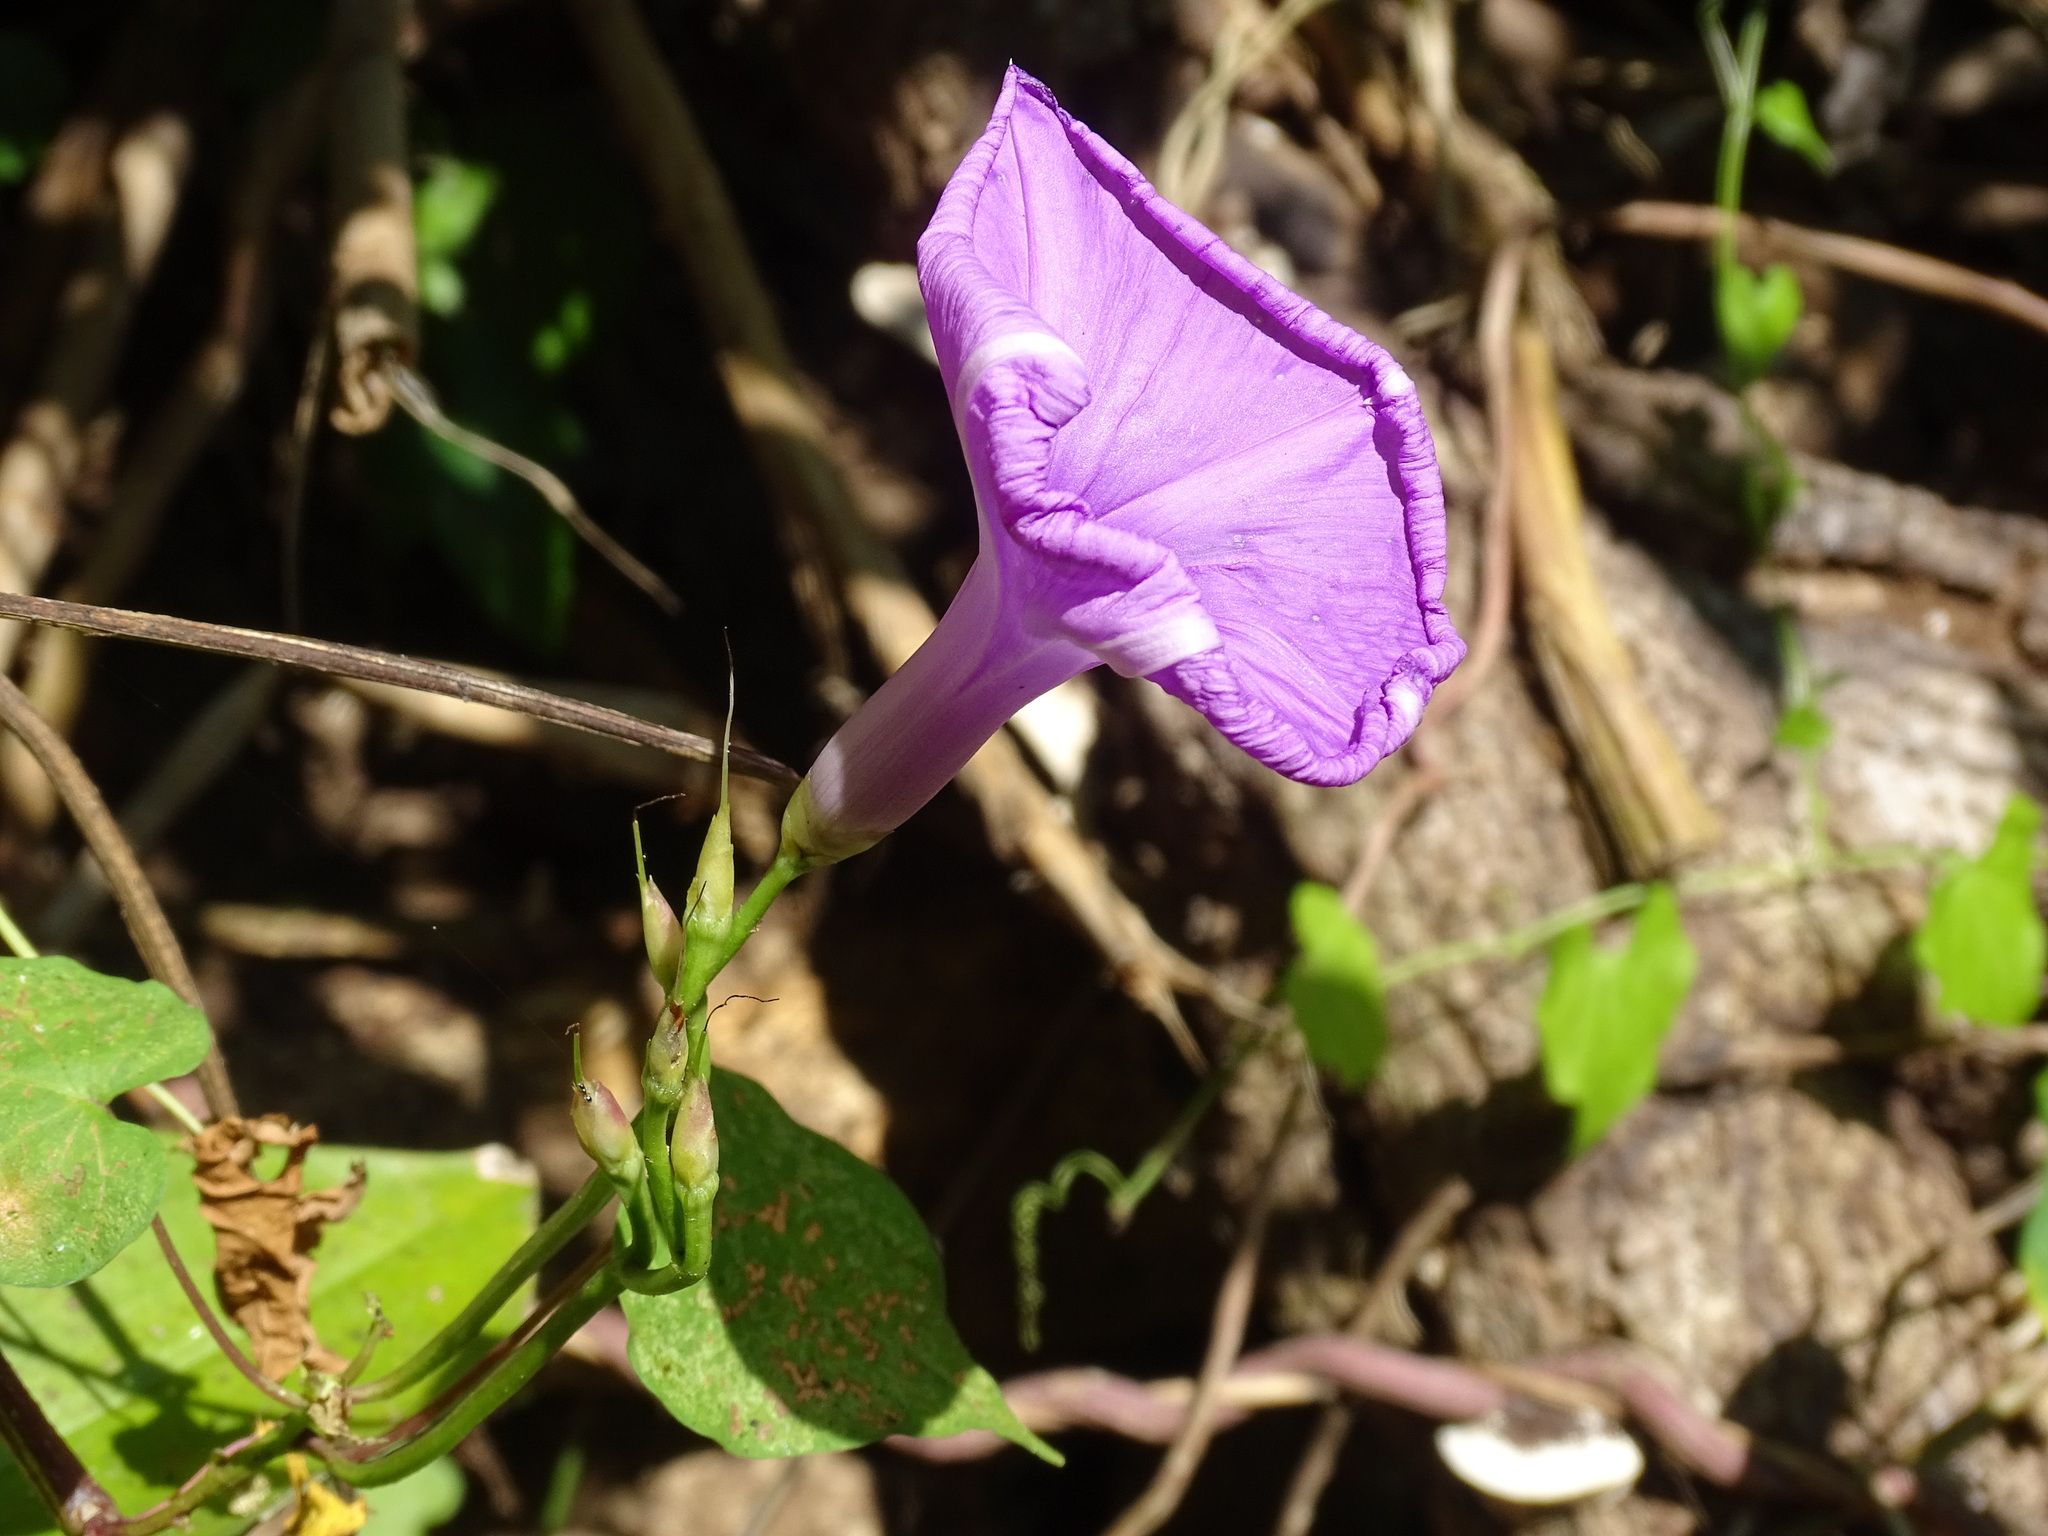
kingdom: Plantae
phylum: Tracheophyta
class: Magnoliopsida
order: Solanales
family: Convolvulaceae
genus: Ipomoea
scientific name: Ipomoea splendor-sylvae
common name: Morning glory
